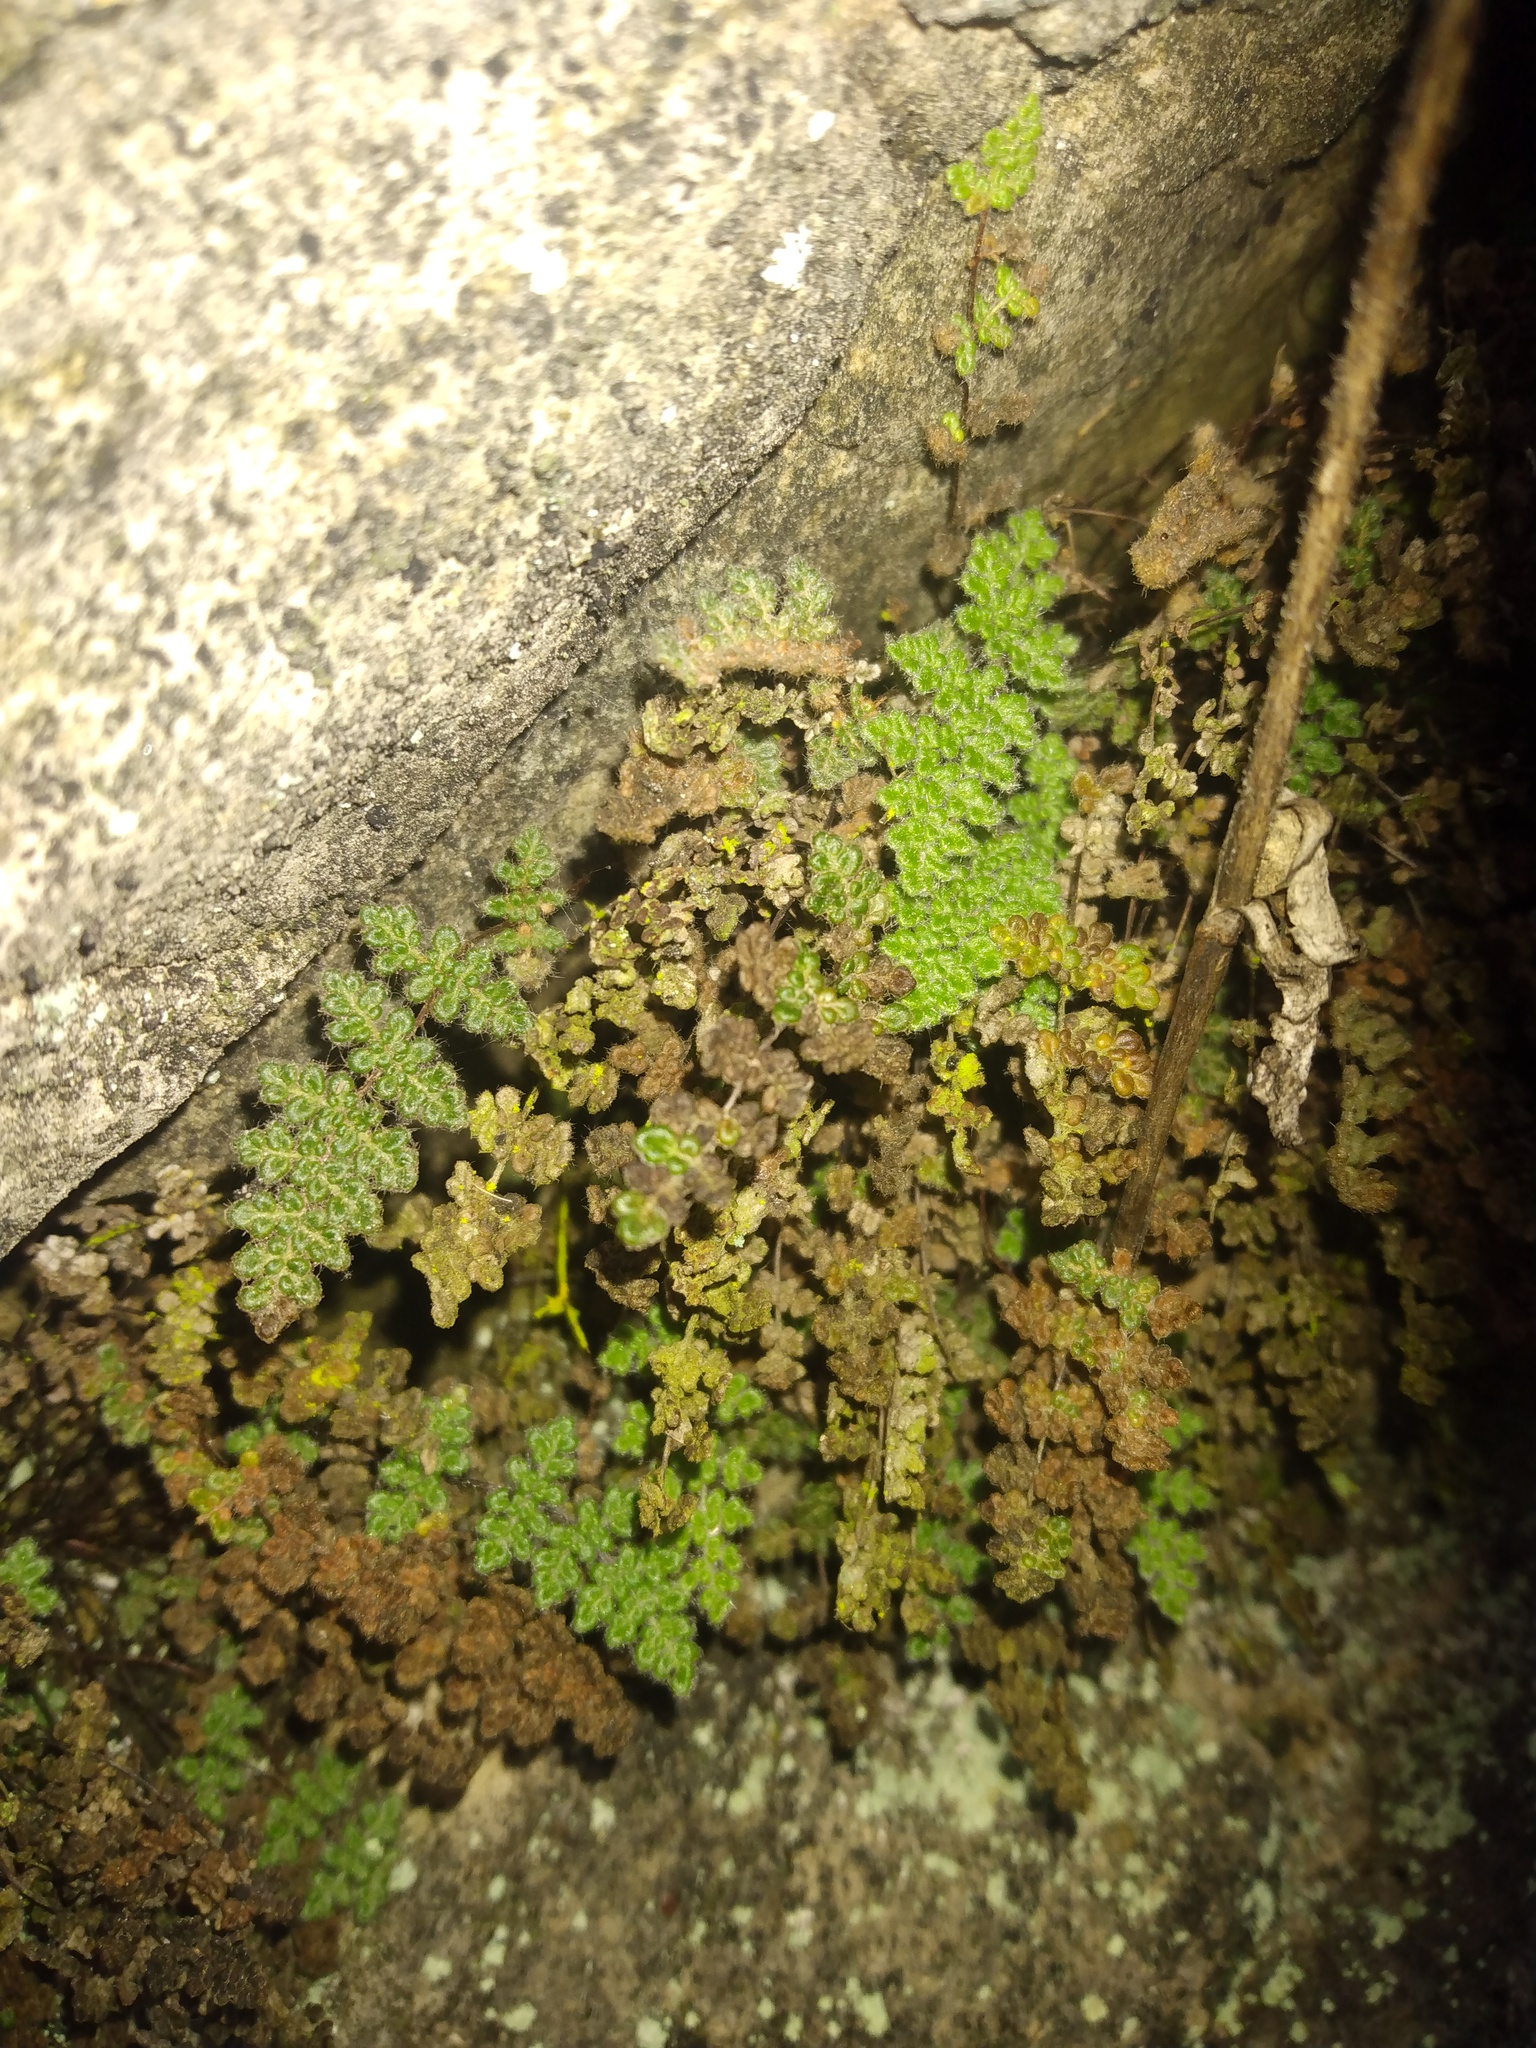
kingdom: Plantae
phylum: Tracheophyta
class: Polypodiopsida
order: Polypodiales
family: Pteridaceae
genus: Myriopteris
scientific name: Myriopteris gracilis
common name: Fee's lip fern
